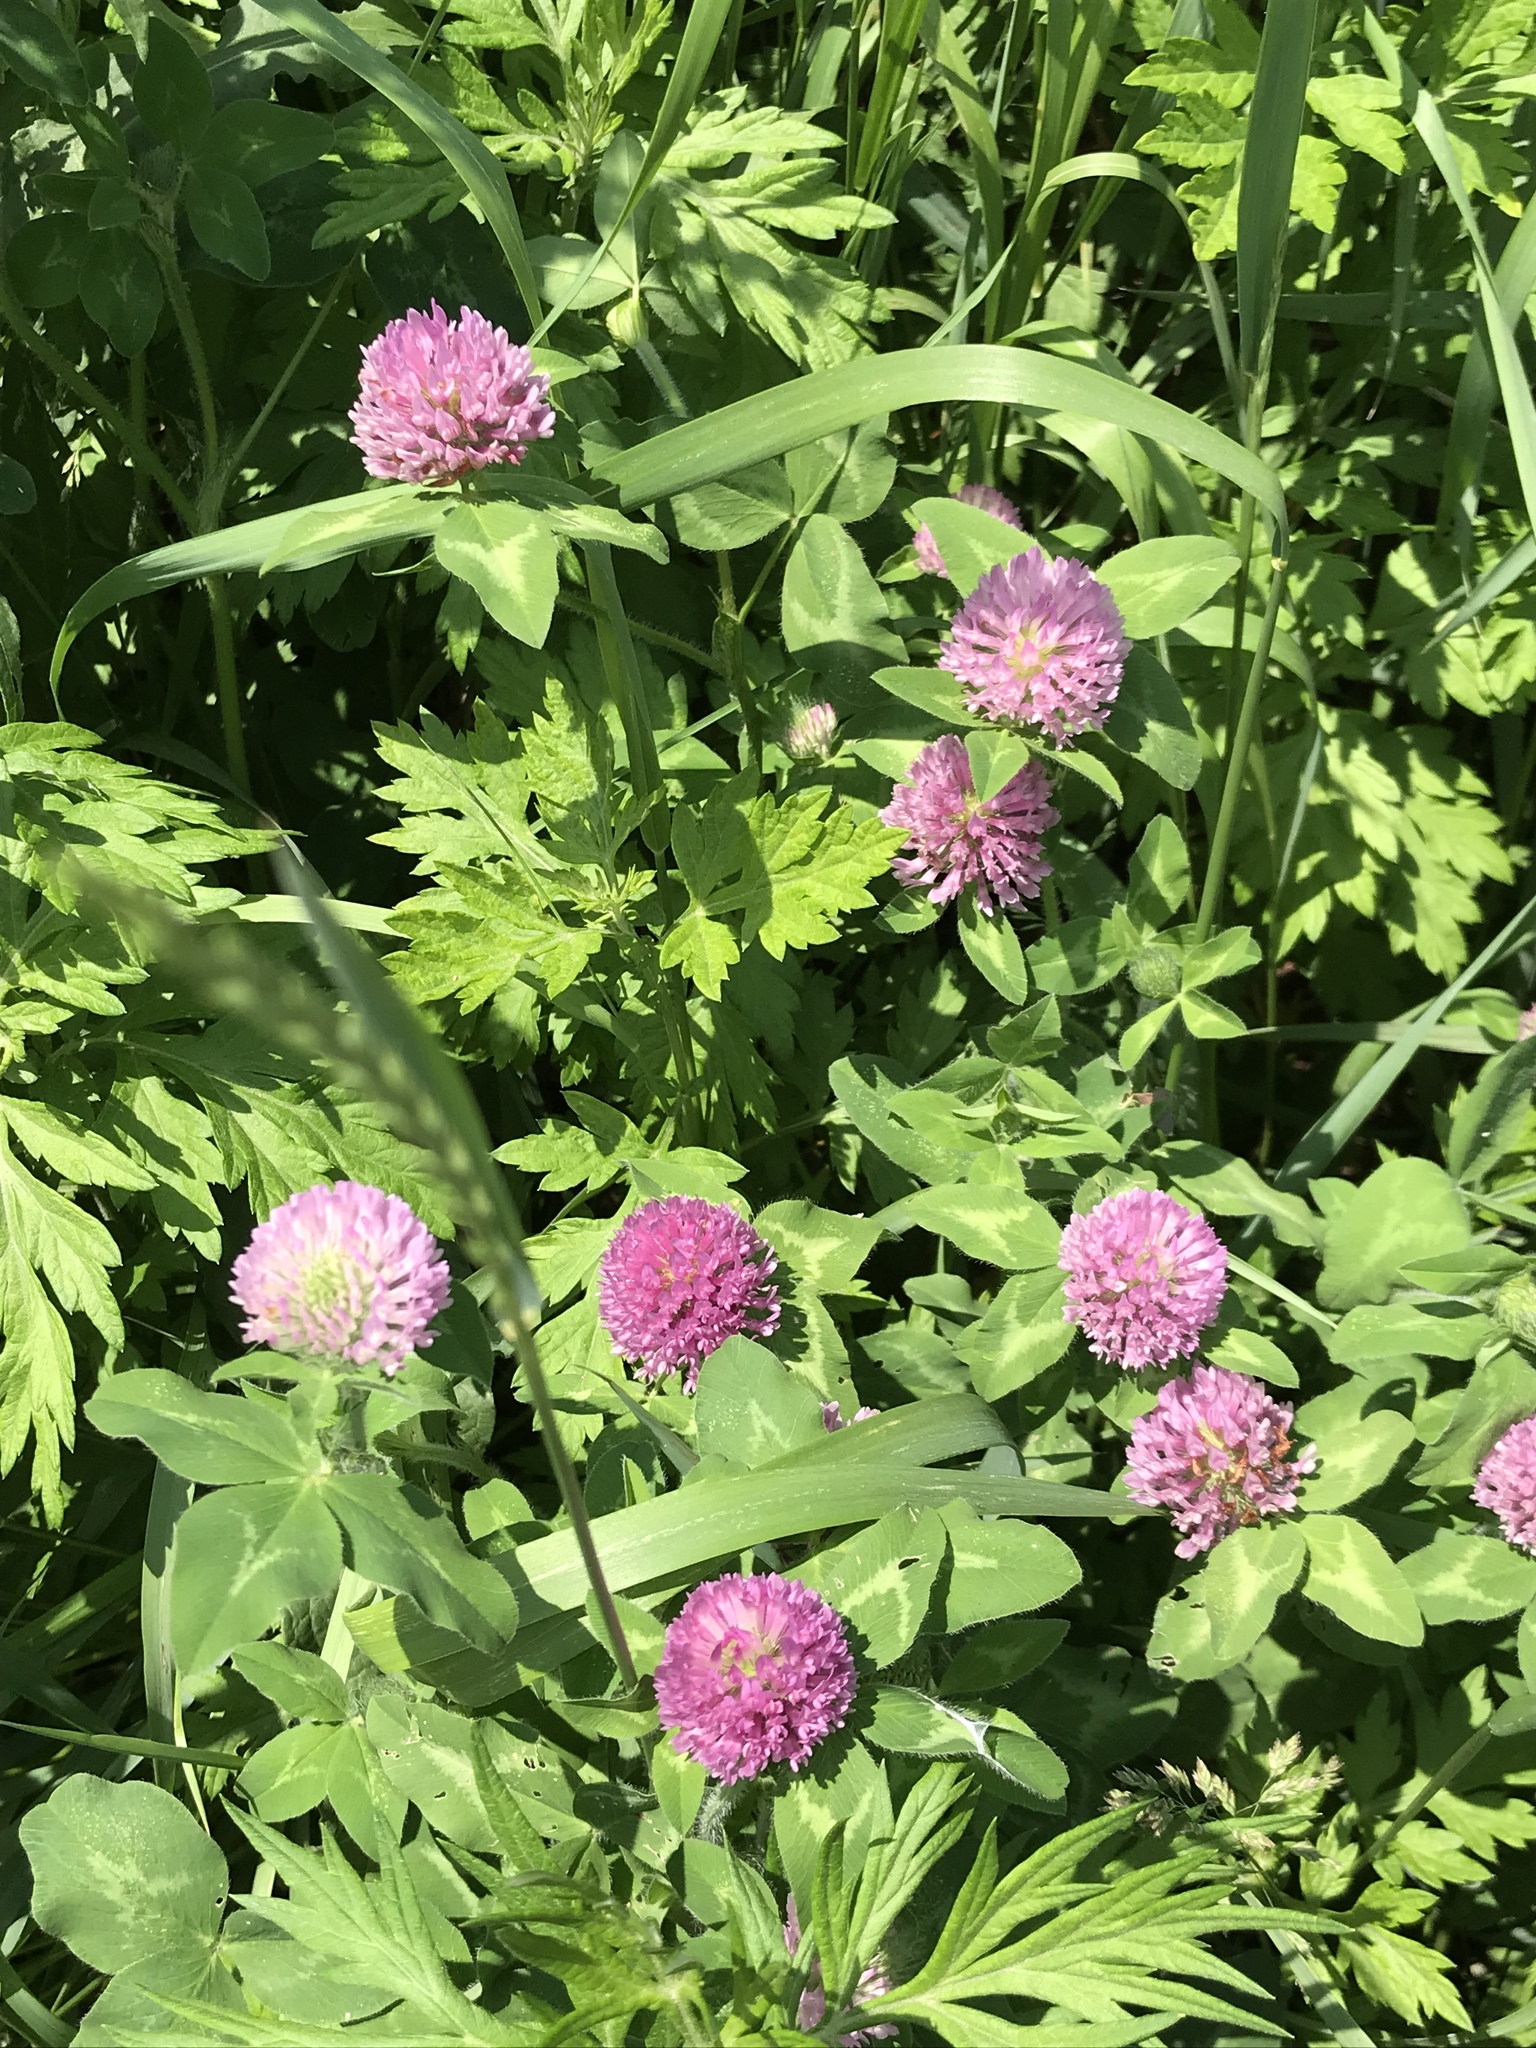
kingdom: Plantae
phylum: Tracheophyta
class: Magnoliopsida
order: Fabales
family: Fabaceae
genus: Trifolium
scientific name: Trifolium pratense
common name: Red clover
